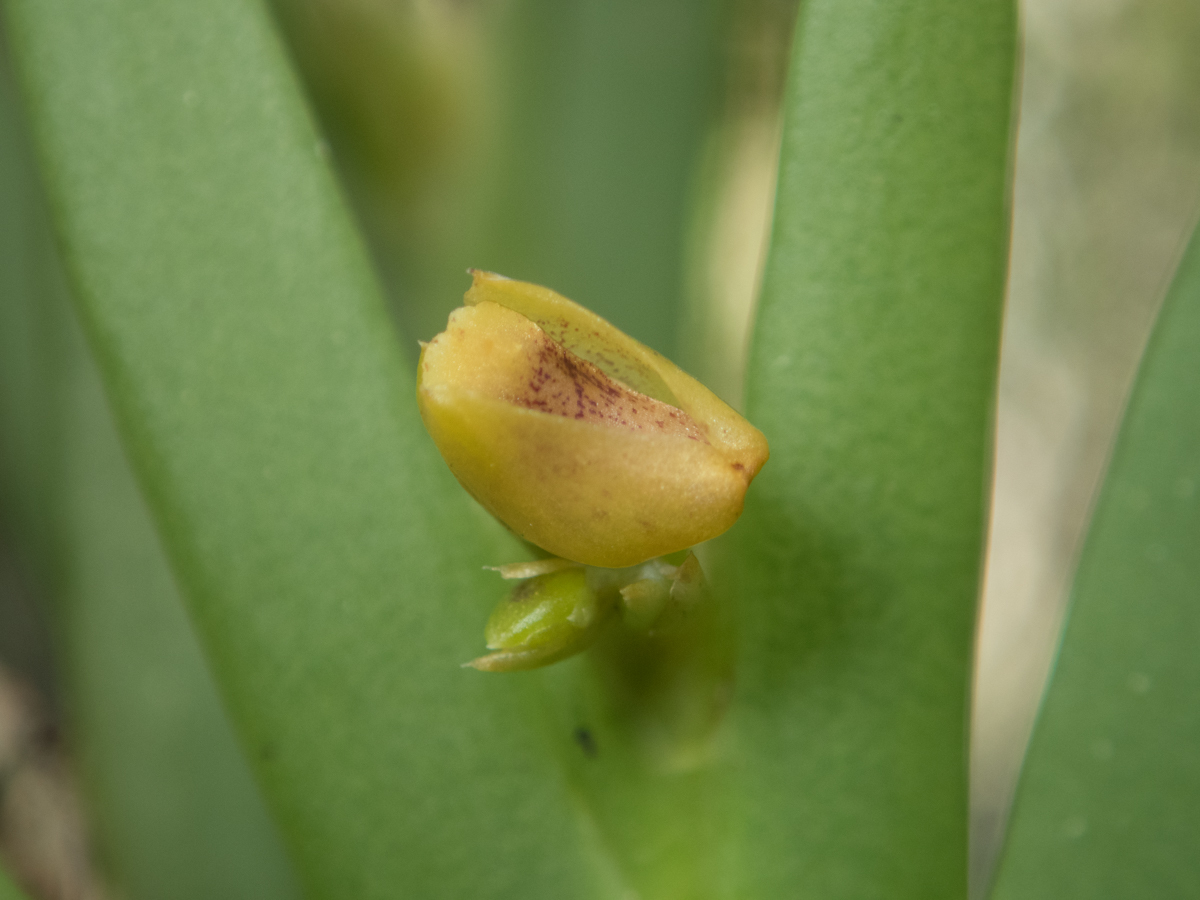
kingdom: Plantae
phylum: Tracheophyta
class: Liliopsida
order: Asparagales
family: Orchidaceae
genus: Oxystophyllum
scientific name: Oxystophyllum carnosum
